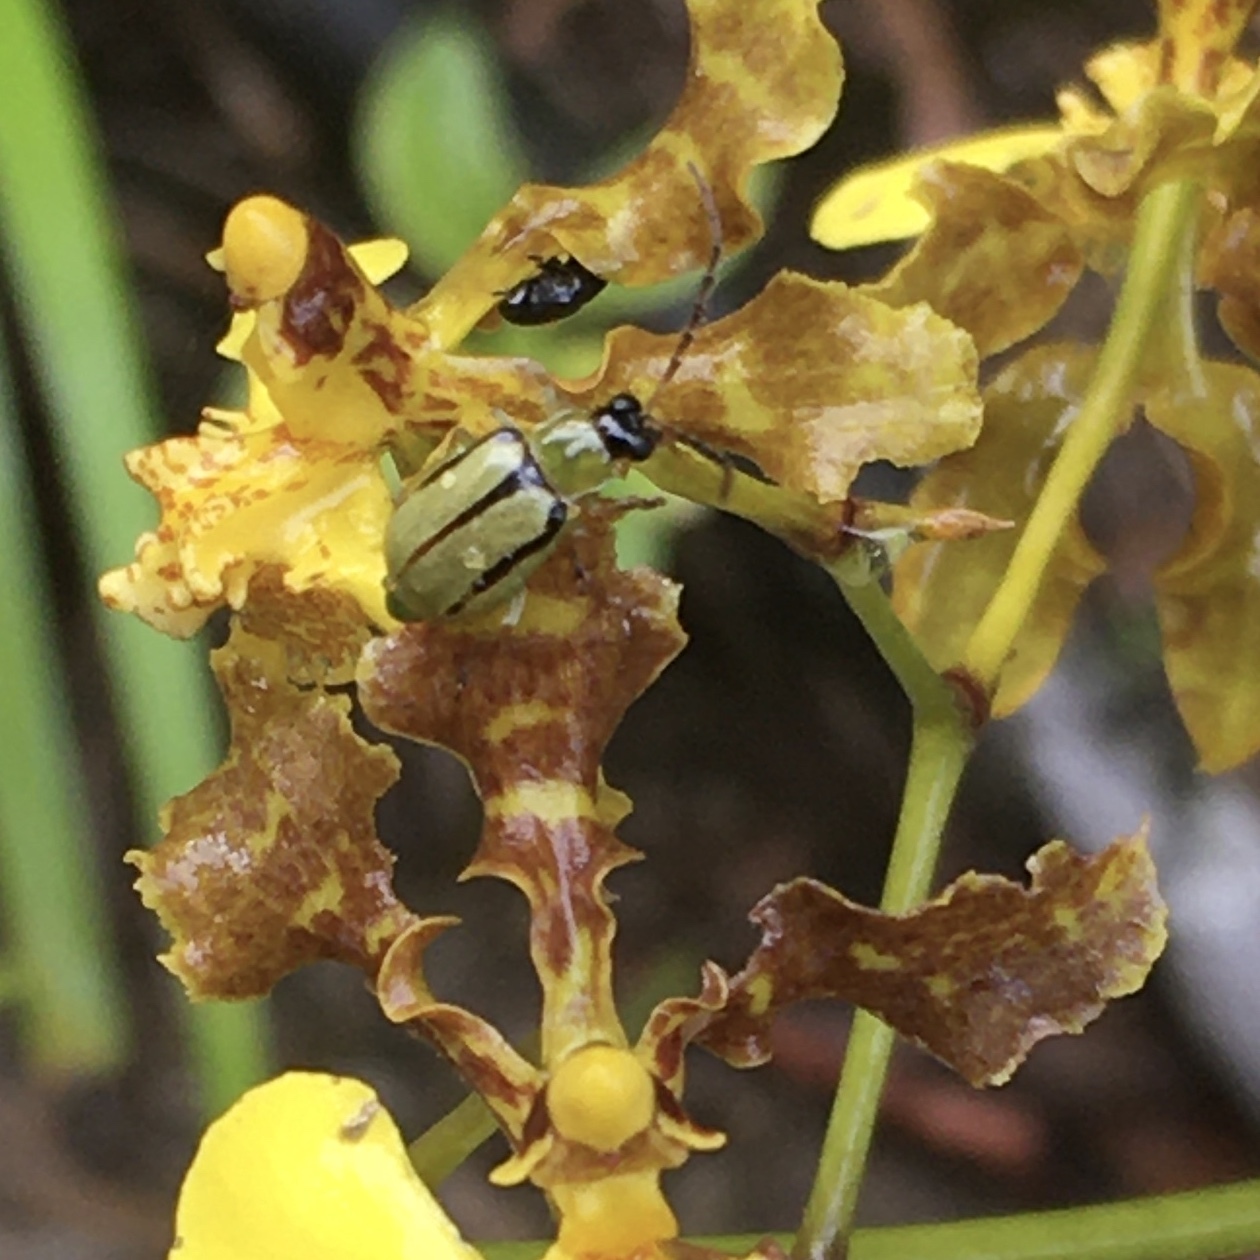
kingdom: Animalia
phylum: Arthropoda
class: Insecta
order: Coleoptera
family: Chrysomelidae
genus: Basiprionota
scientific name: Basiprionota sinuata
